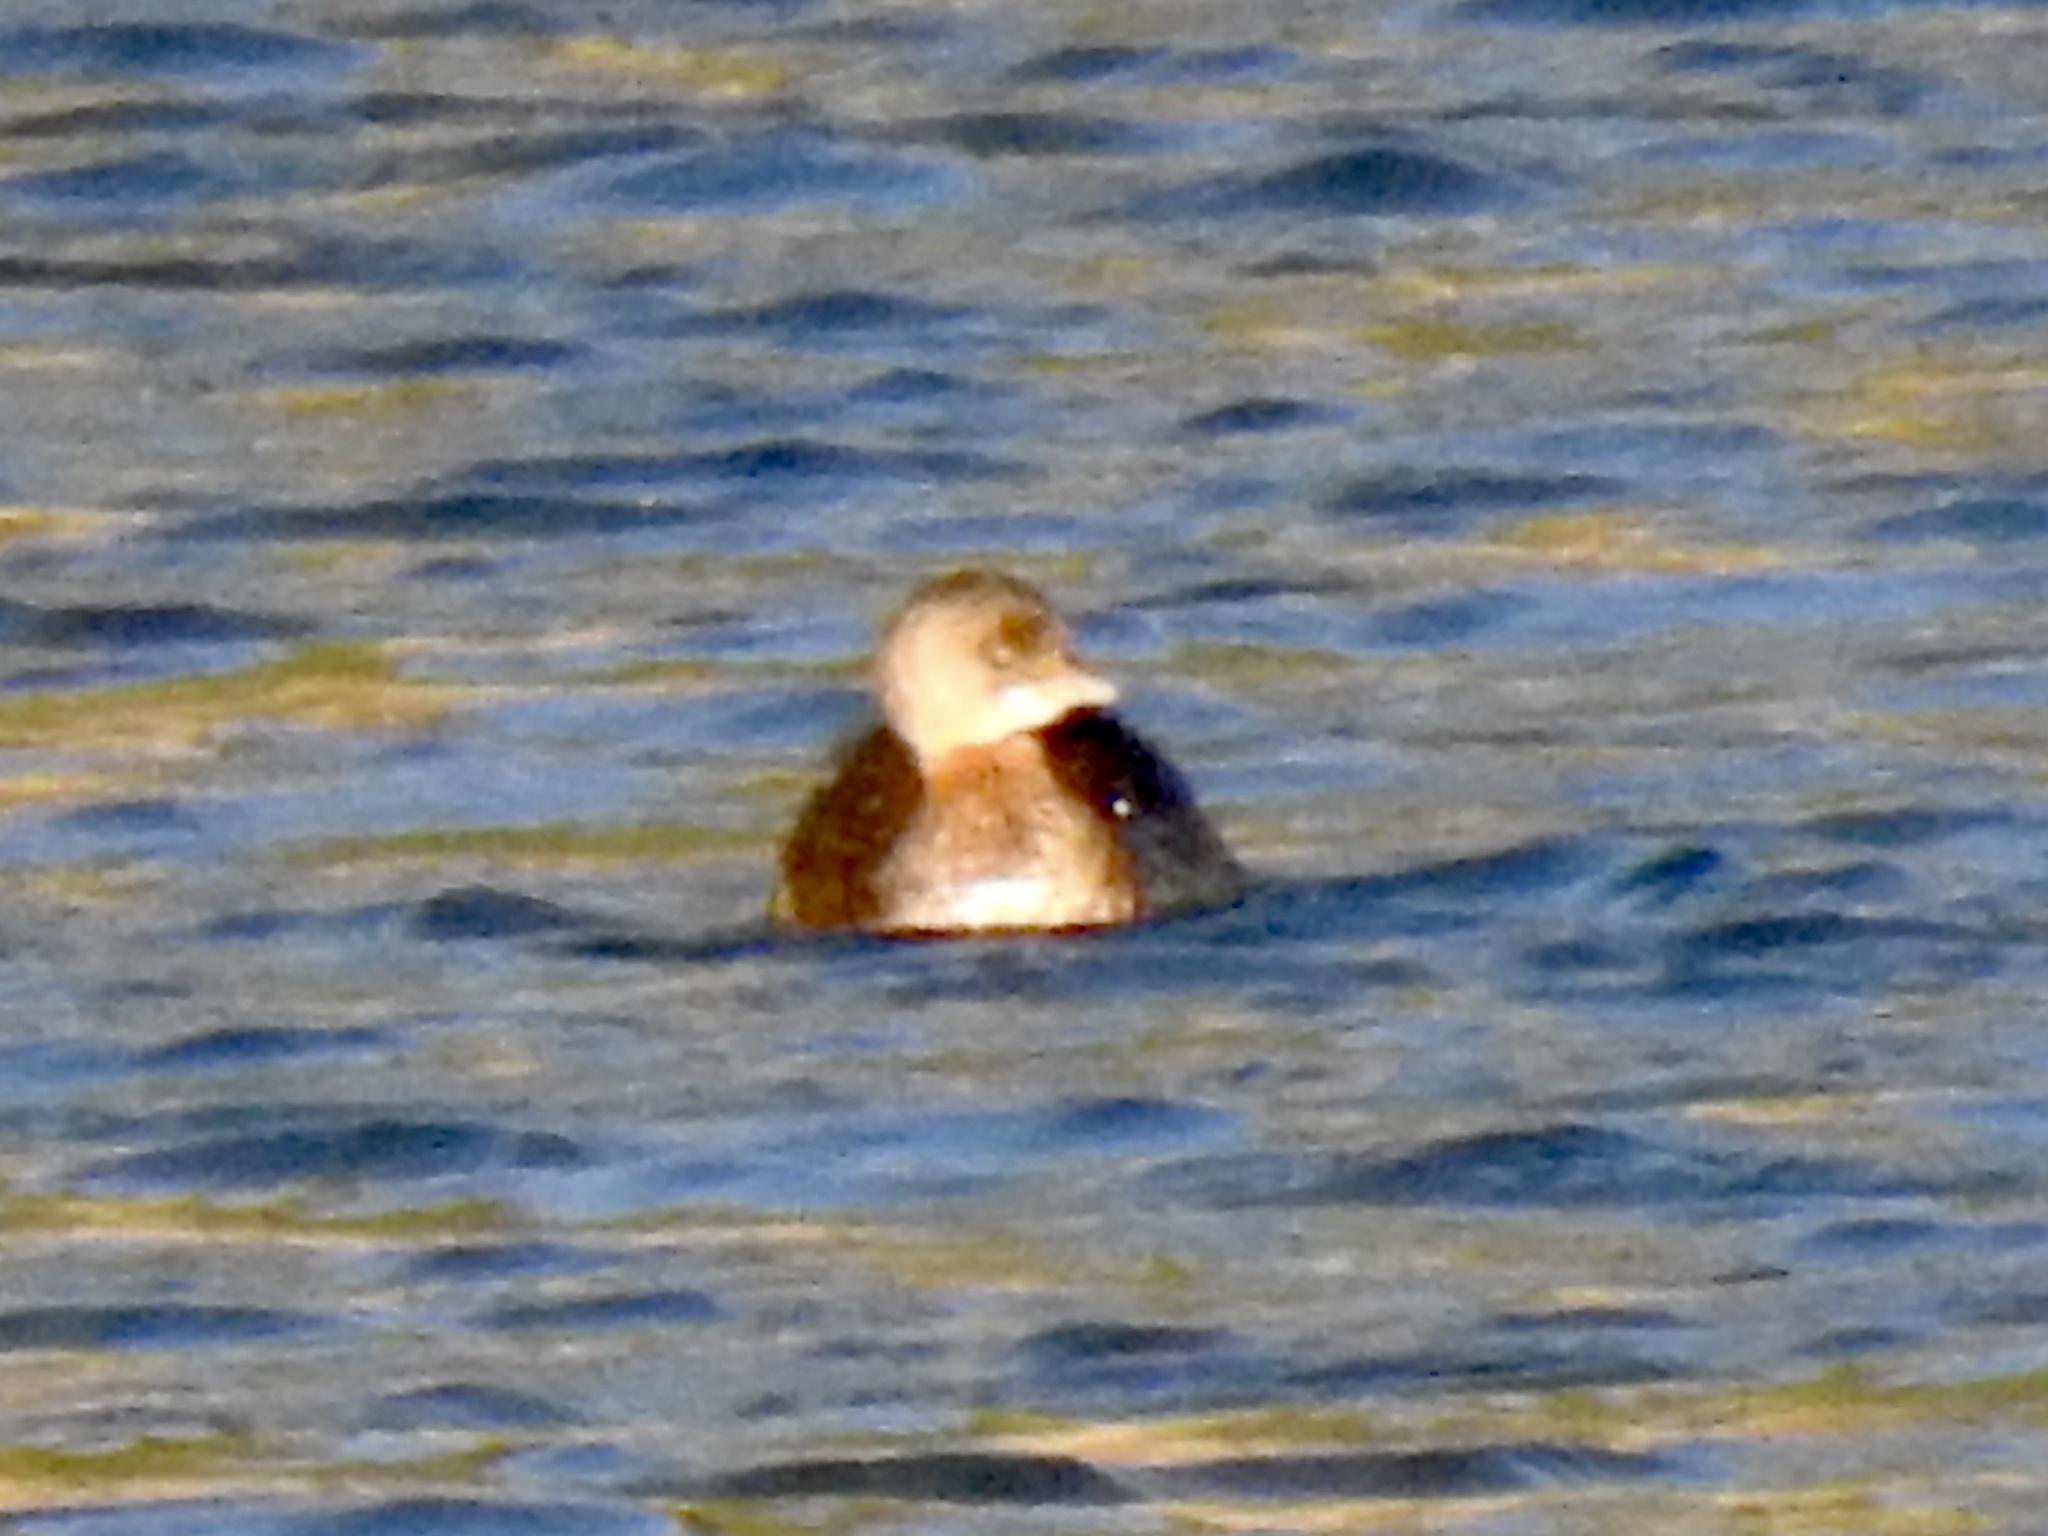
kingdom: Animalia
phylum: Chordata
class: Aves
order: Podicipediformes
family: Podicipedidae
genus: Podilymbus
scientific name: Podilymbus podiceps
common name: Pied-billed grebe
